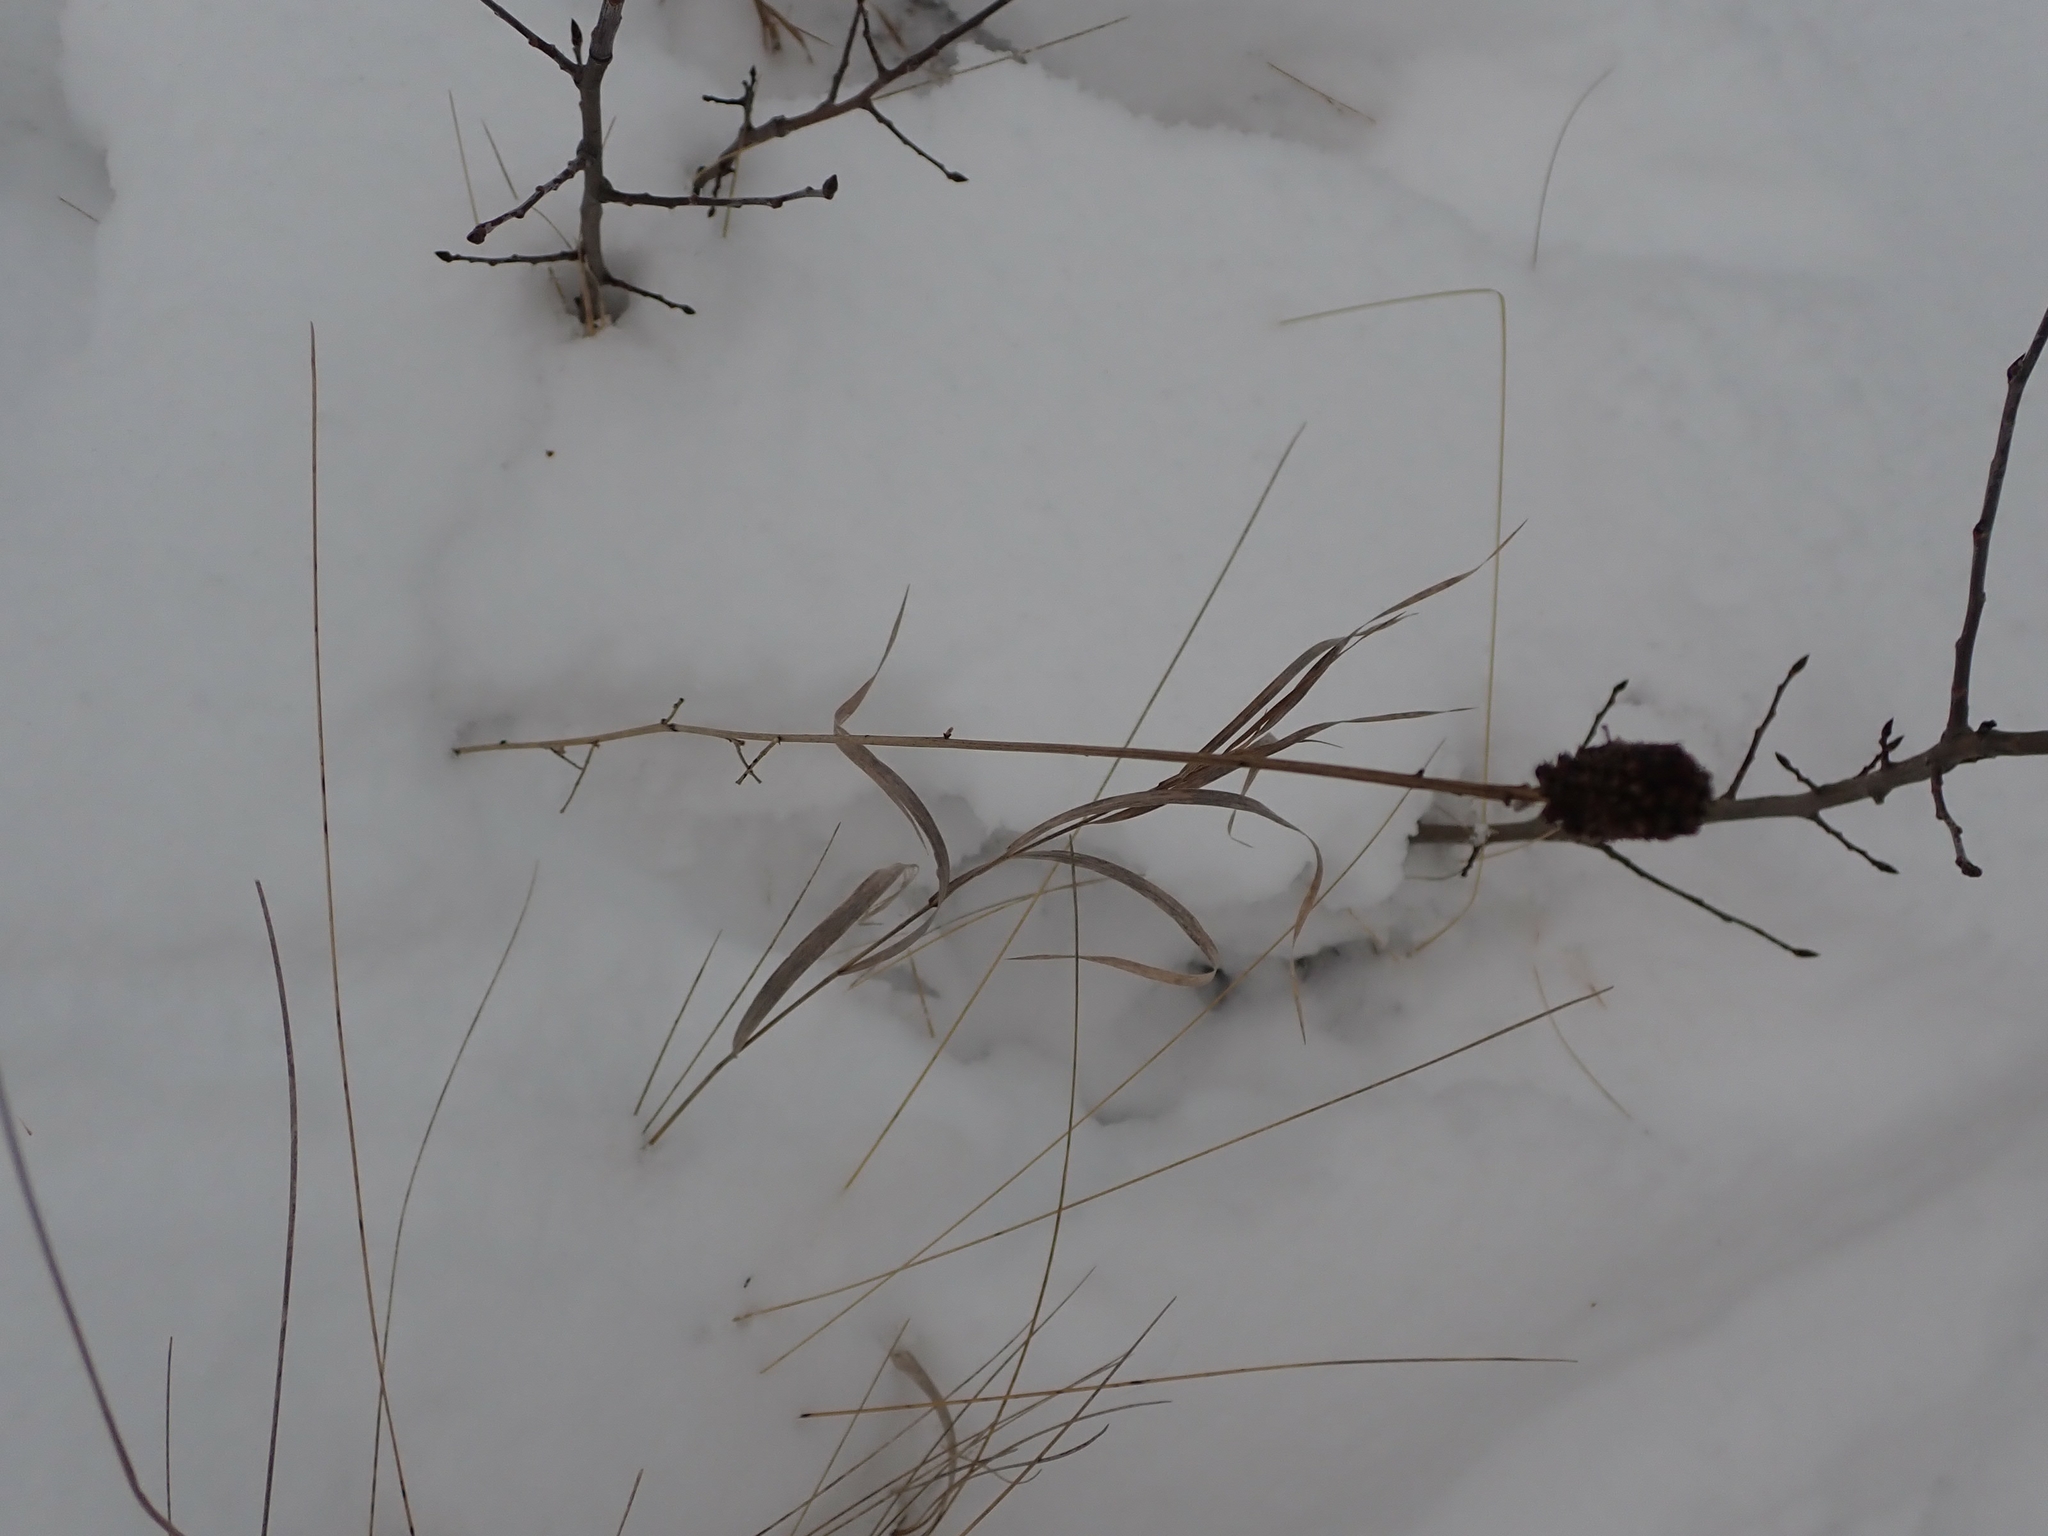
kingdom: Plantae
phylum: Tracheophyta
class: Magnoliopsida
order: Fabales
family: Fabaceae
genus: Dalea
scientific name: Dalea purpurea
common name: Purple prairie-clover
